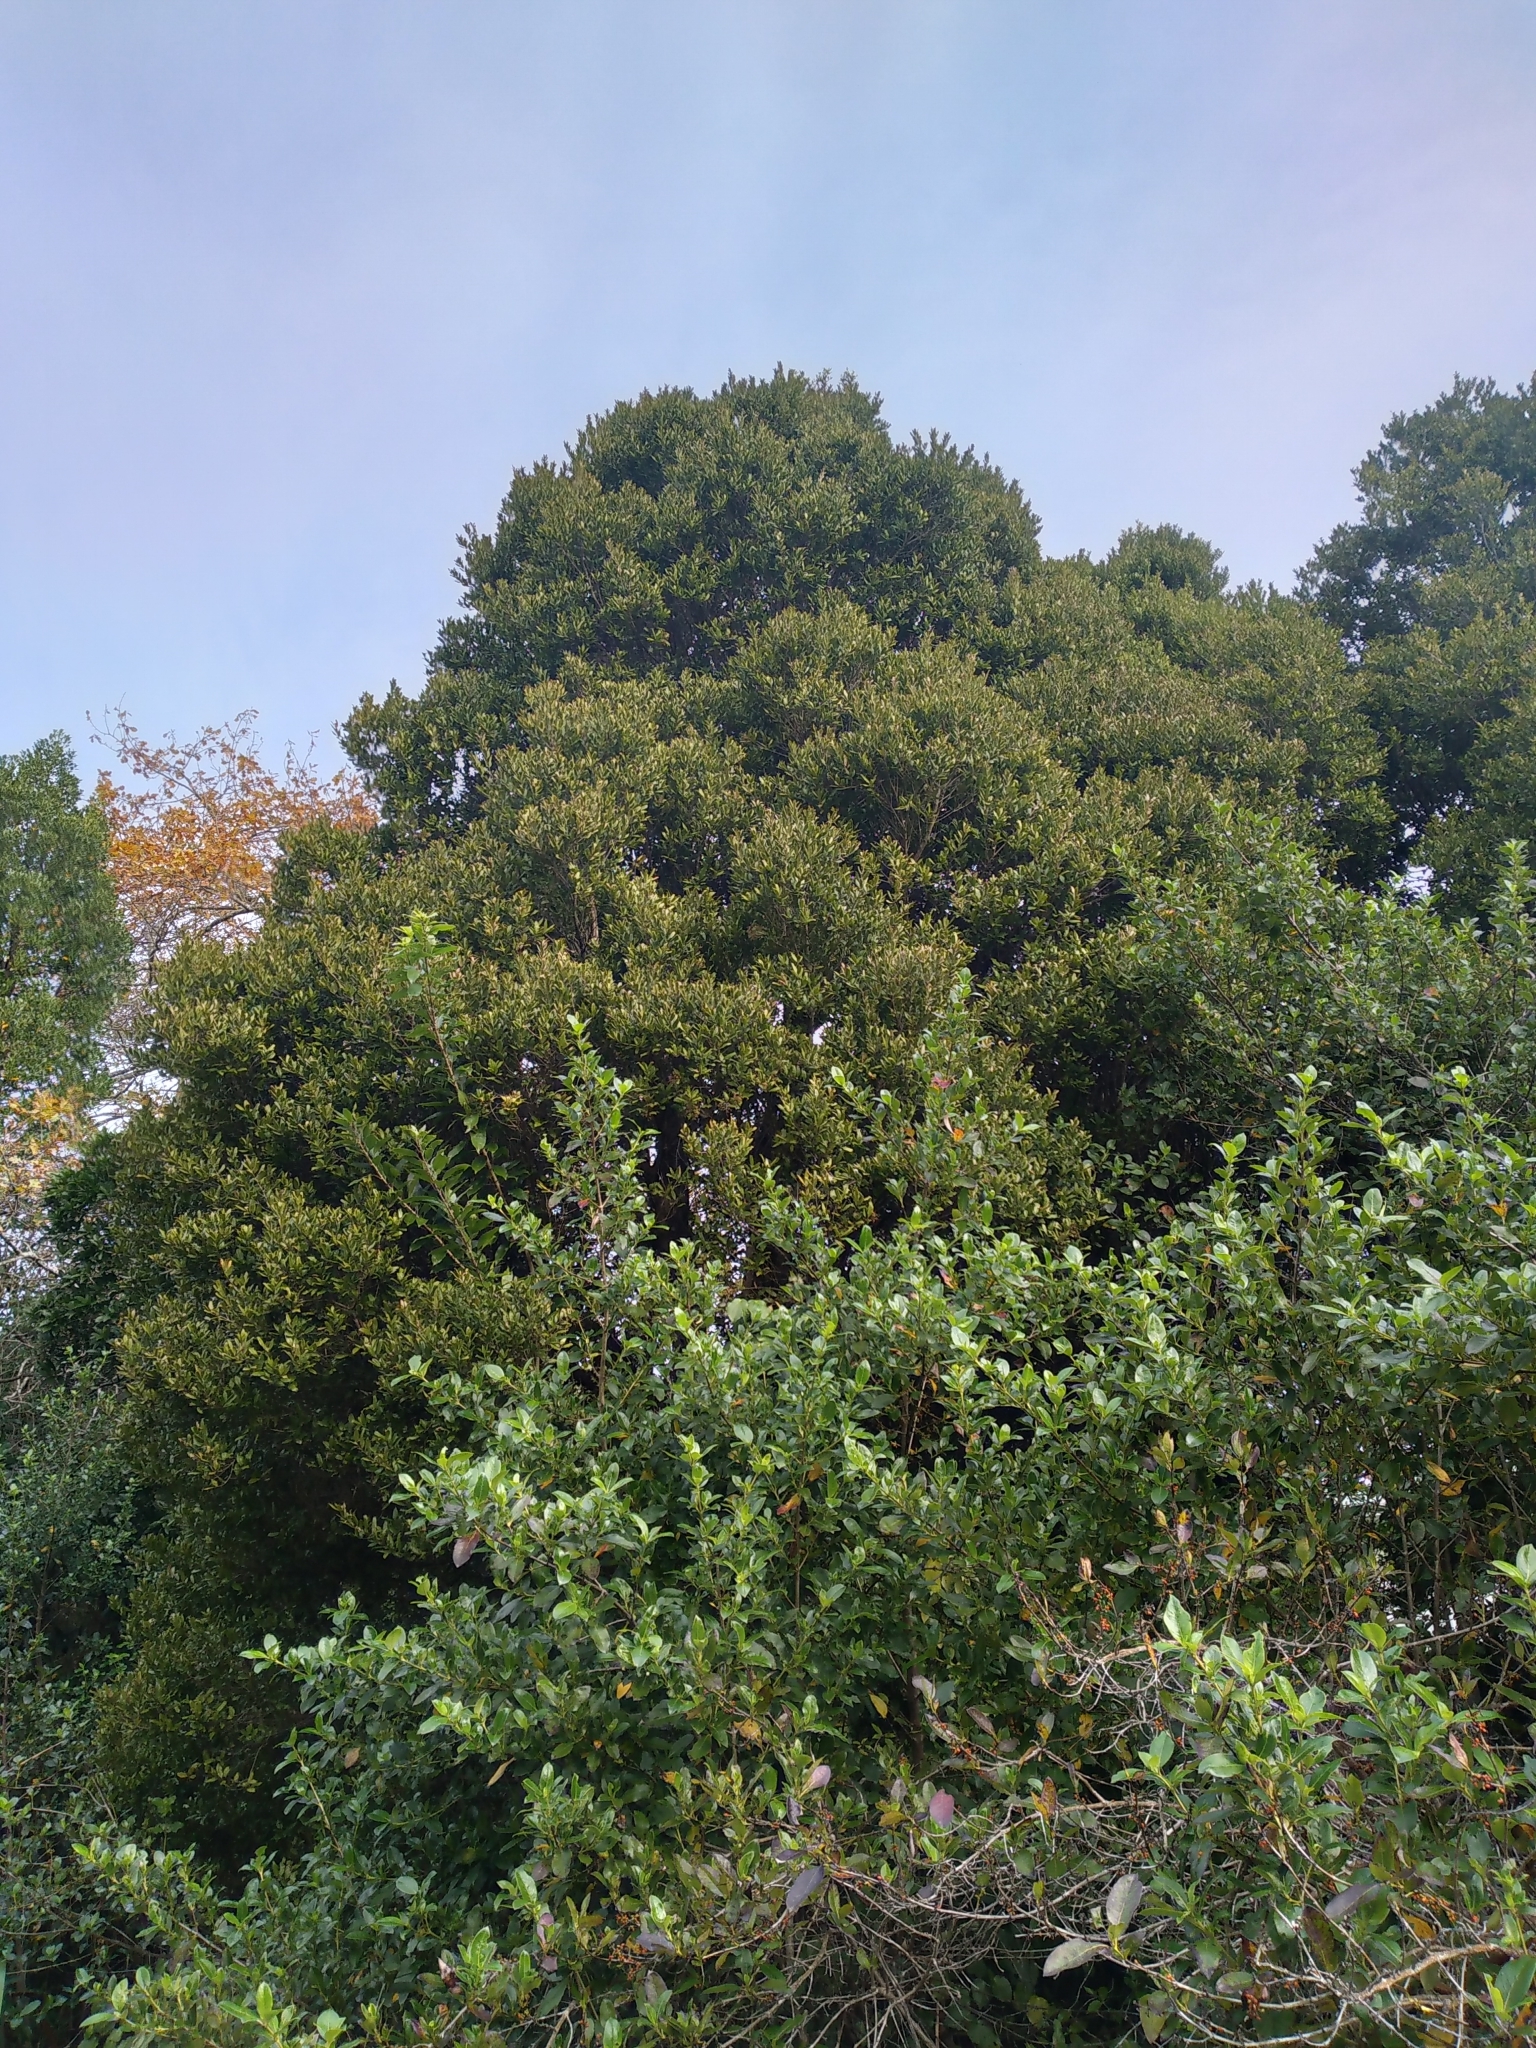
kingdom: Plantae
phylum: Tracheophyta
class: Magnoliopsida
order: Myrtales
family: Myrtaceae
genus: Syzygium
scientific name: Syzygium maire
